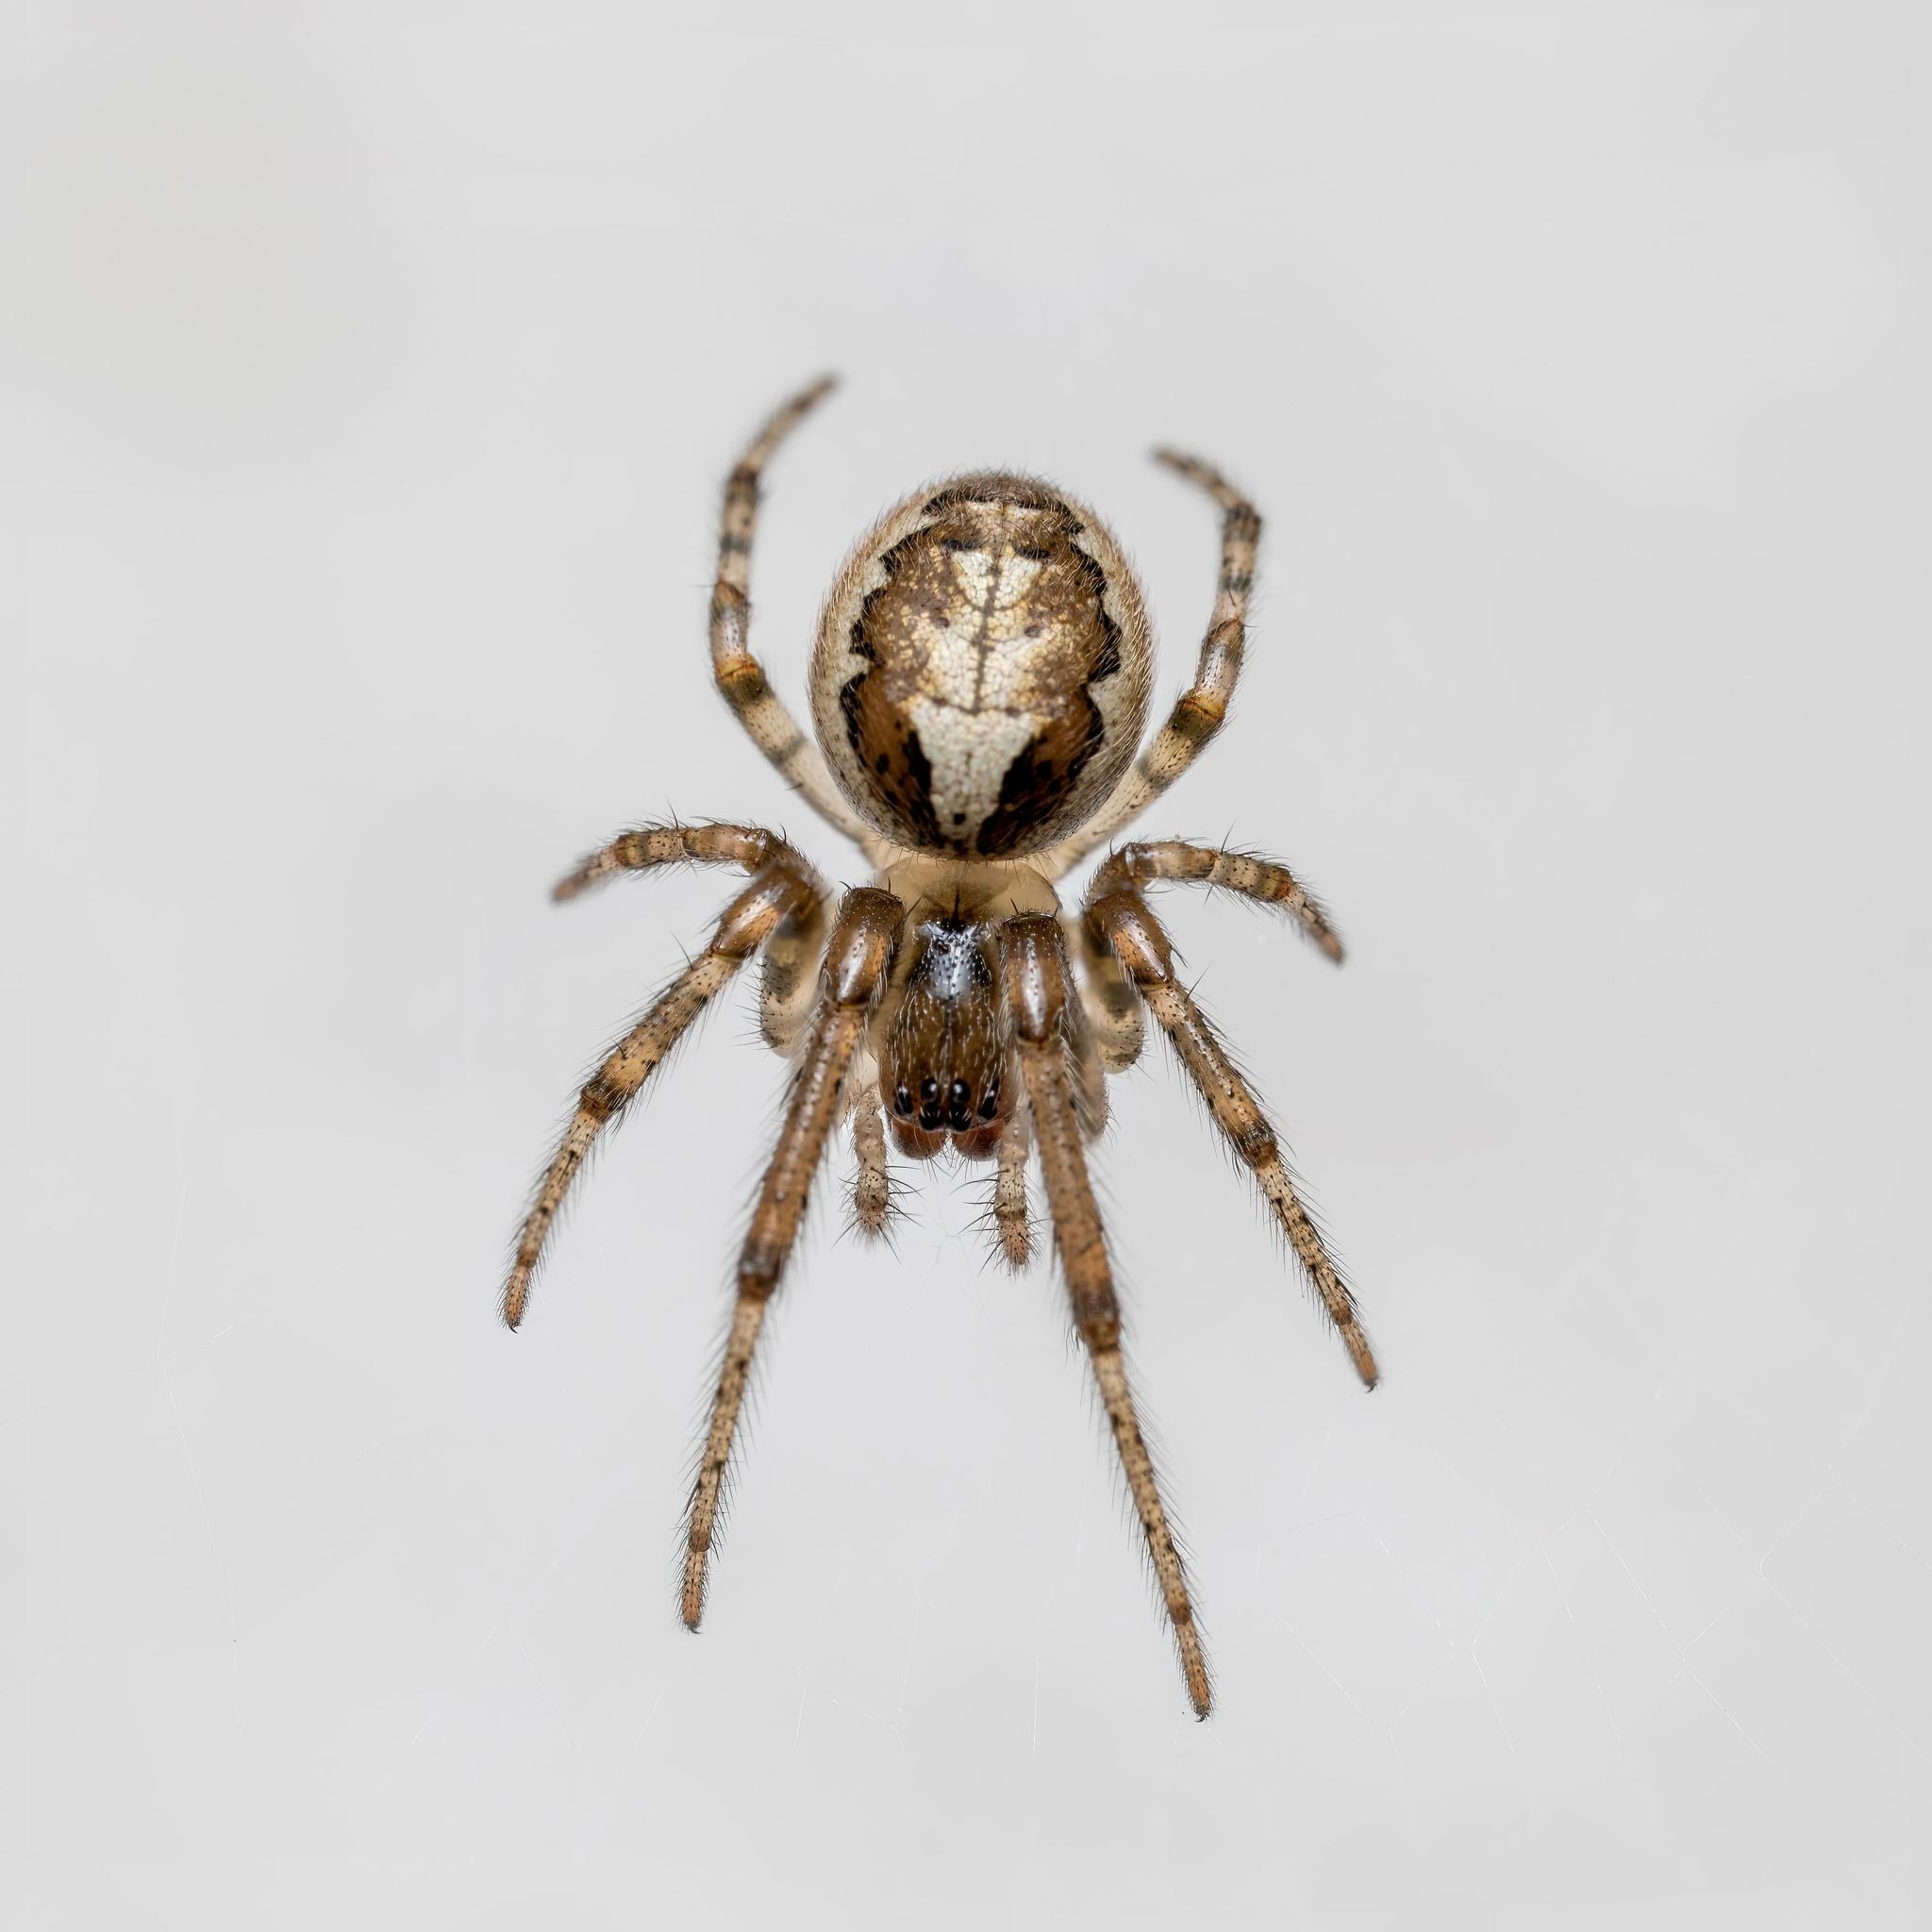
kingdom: Animalia
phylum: Arthropoda
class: Arachnida
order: Araneae
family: Araneidae
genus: Zygiella
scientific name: Zygiella x-notata
